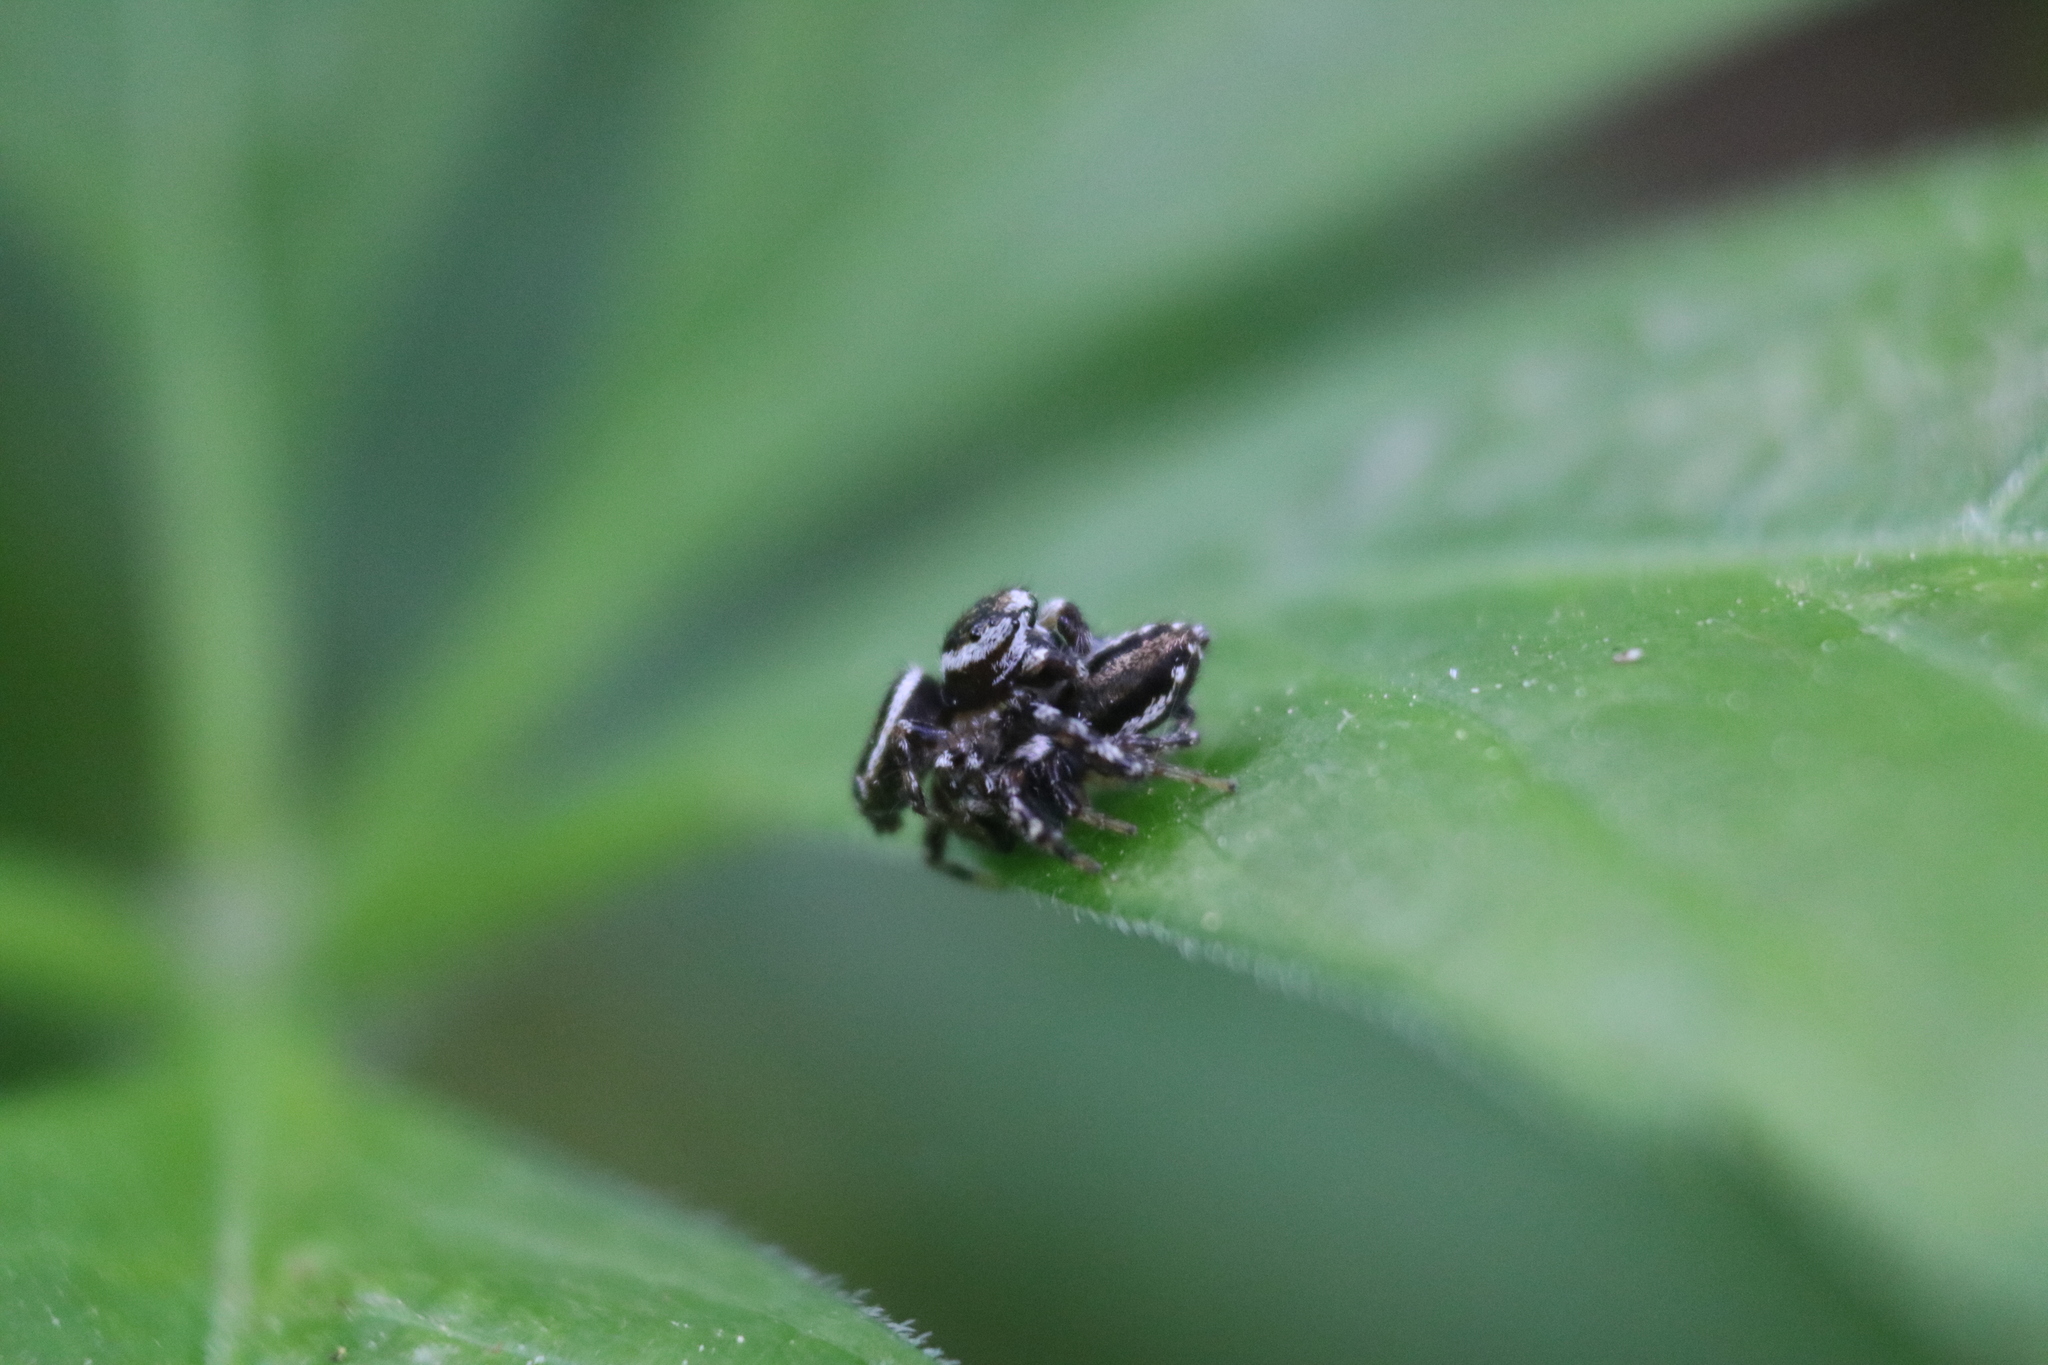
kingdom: Animalia
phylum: Arthropoda
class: Arachnida
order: Araneae
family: Salticidae
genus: Pelegrina
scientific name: Pelegrina proterva
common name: Common white-cheeked jumping spider
